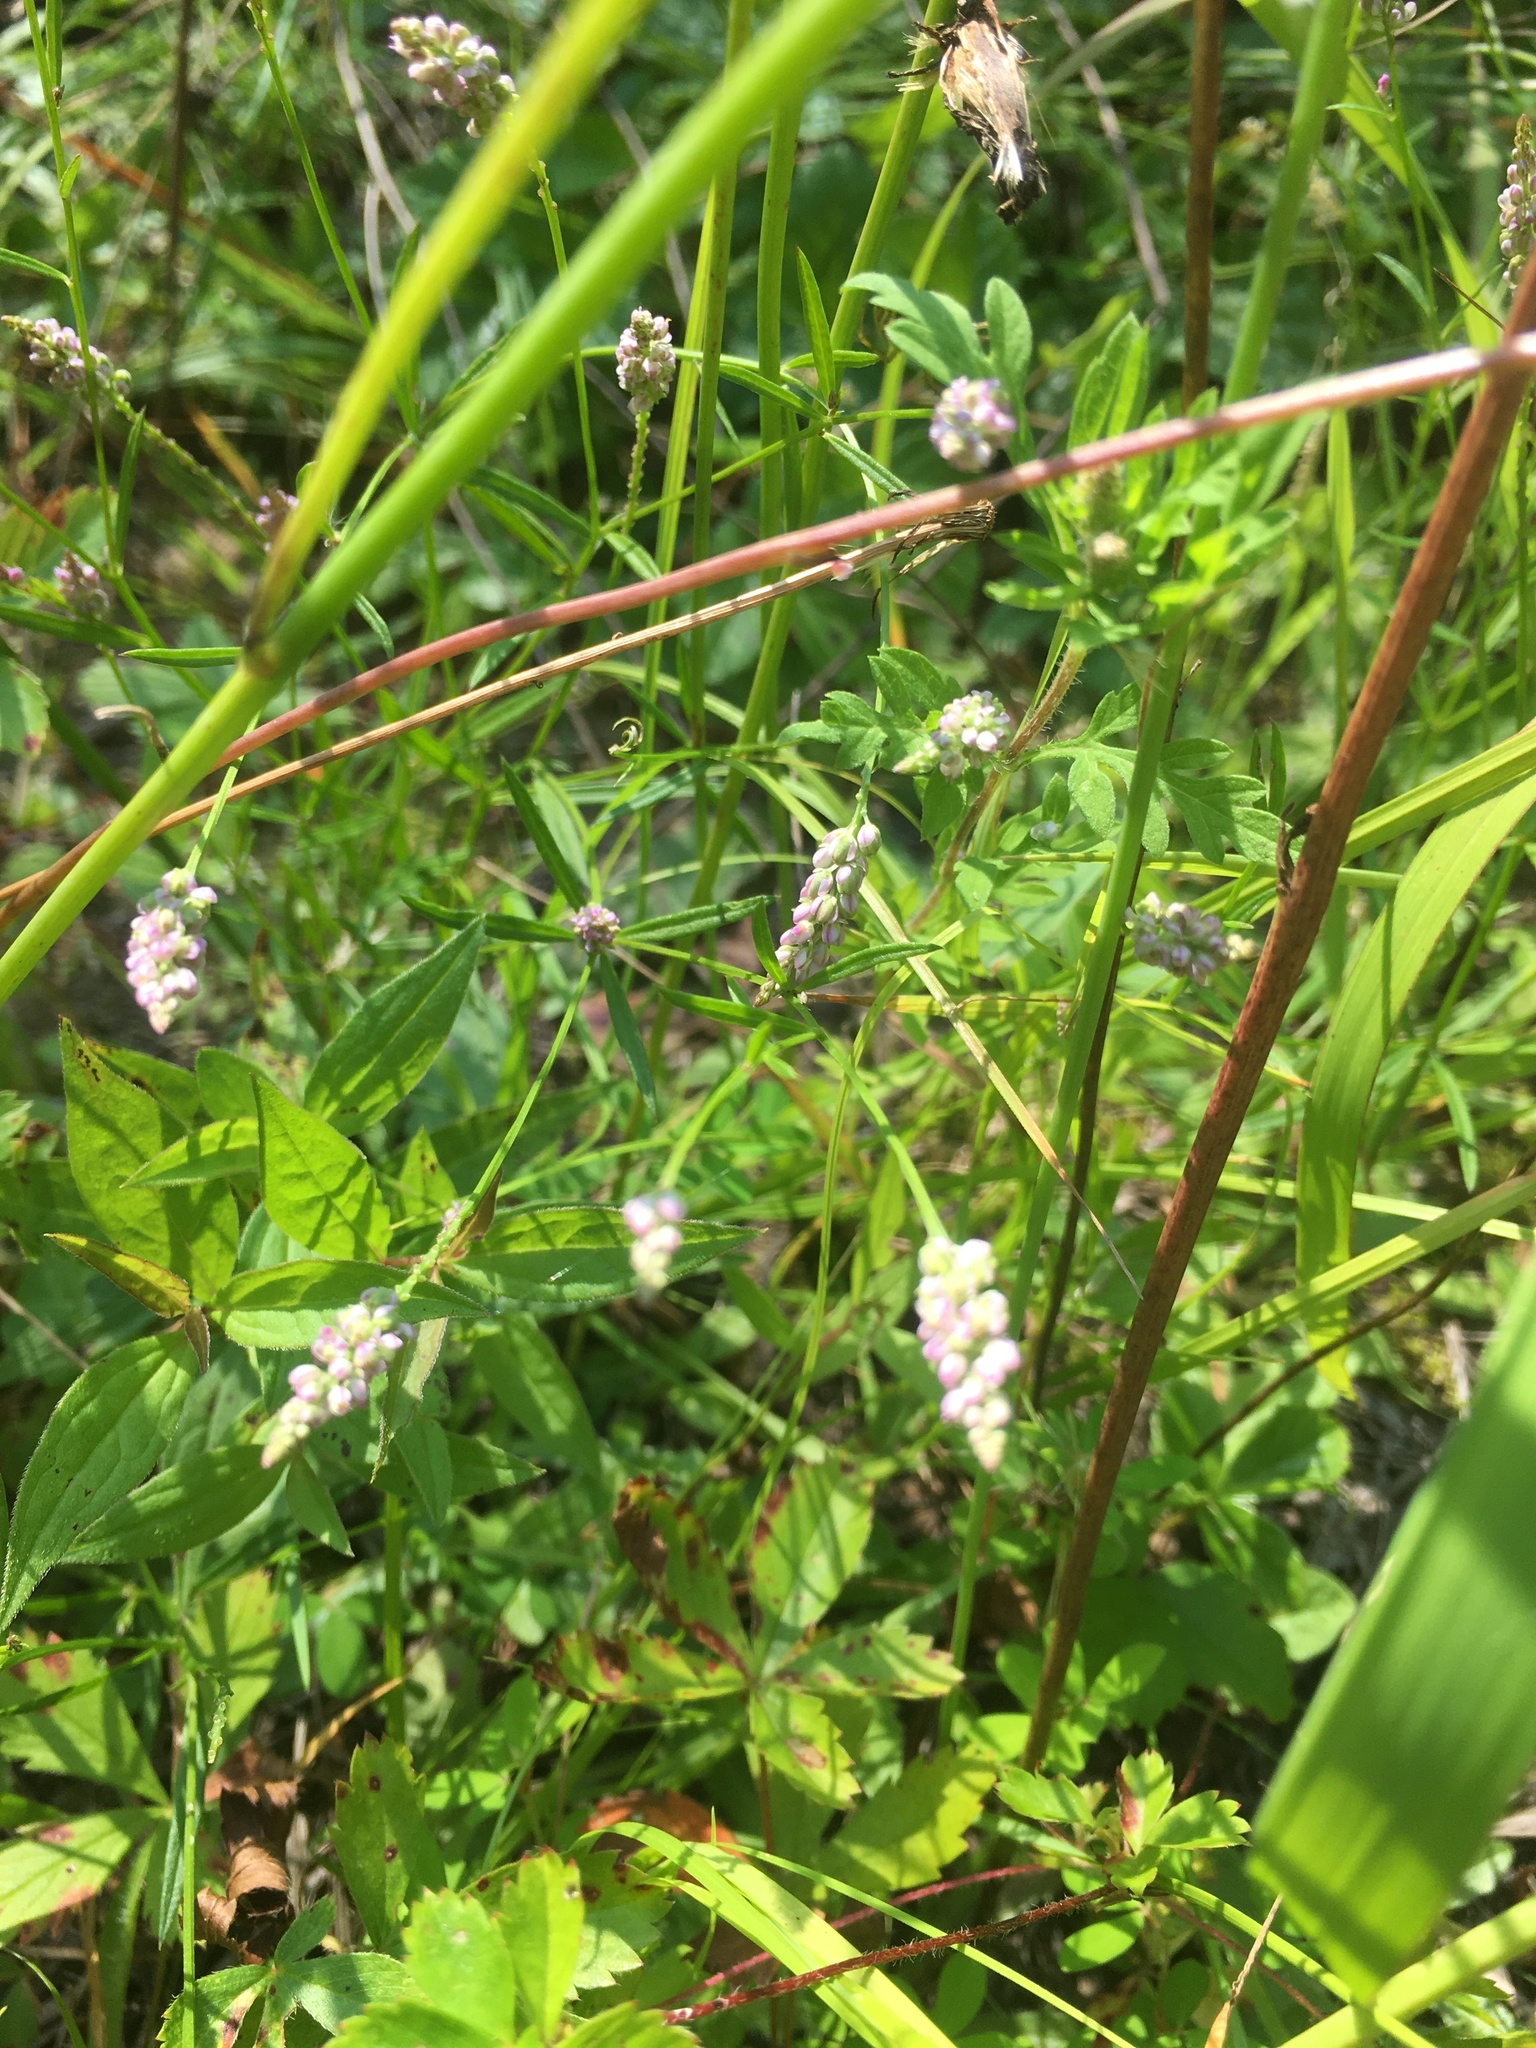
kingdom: Plantae
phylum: Tracheophyta
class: Magnoliopsida
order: Fabales
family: Polygalaceae
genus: Polygala
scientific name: Polygala verticillata
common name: Whorl milkwort
